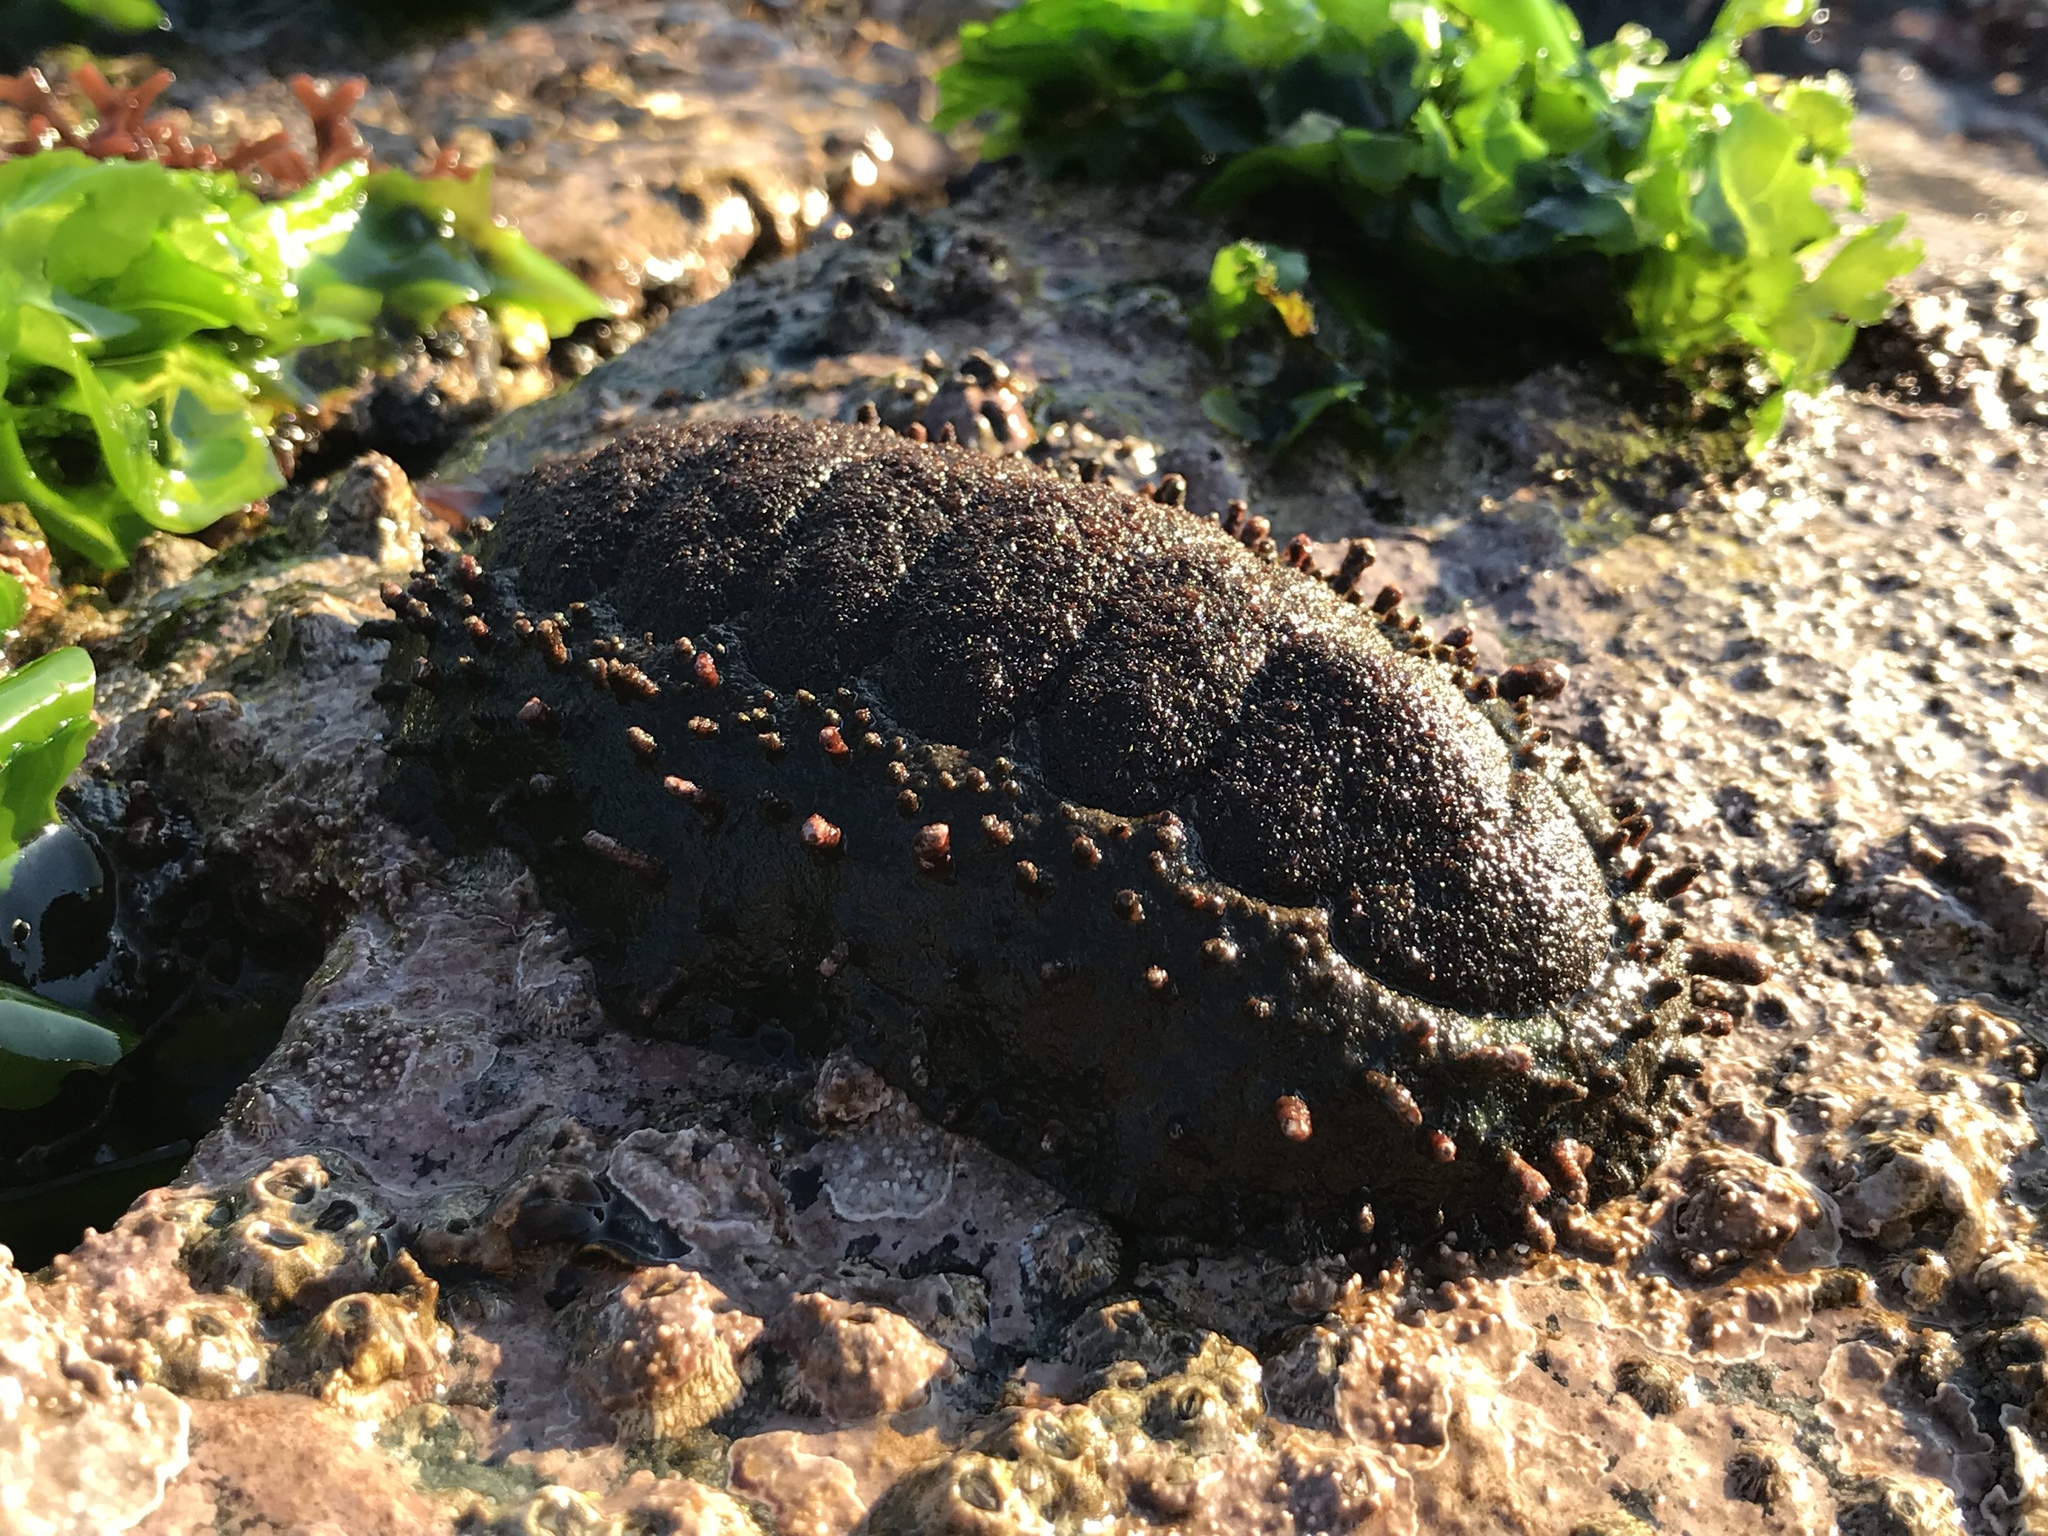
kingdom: Animalia
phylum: Mollusca
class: Polyplacophora
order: Chitonida
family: Chitonidae
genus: Enoplochiton
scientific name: Enoplochiton echinatus
